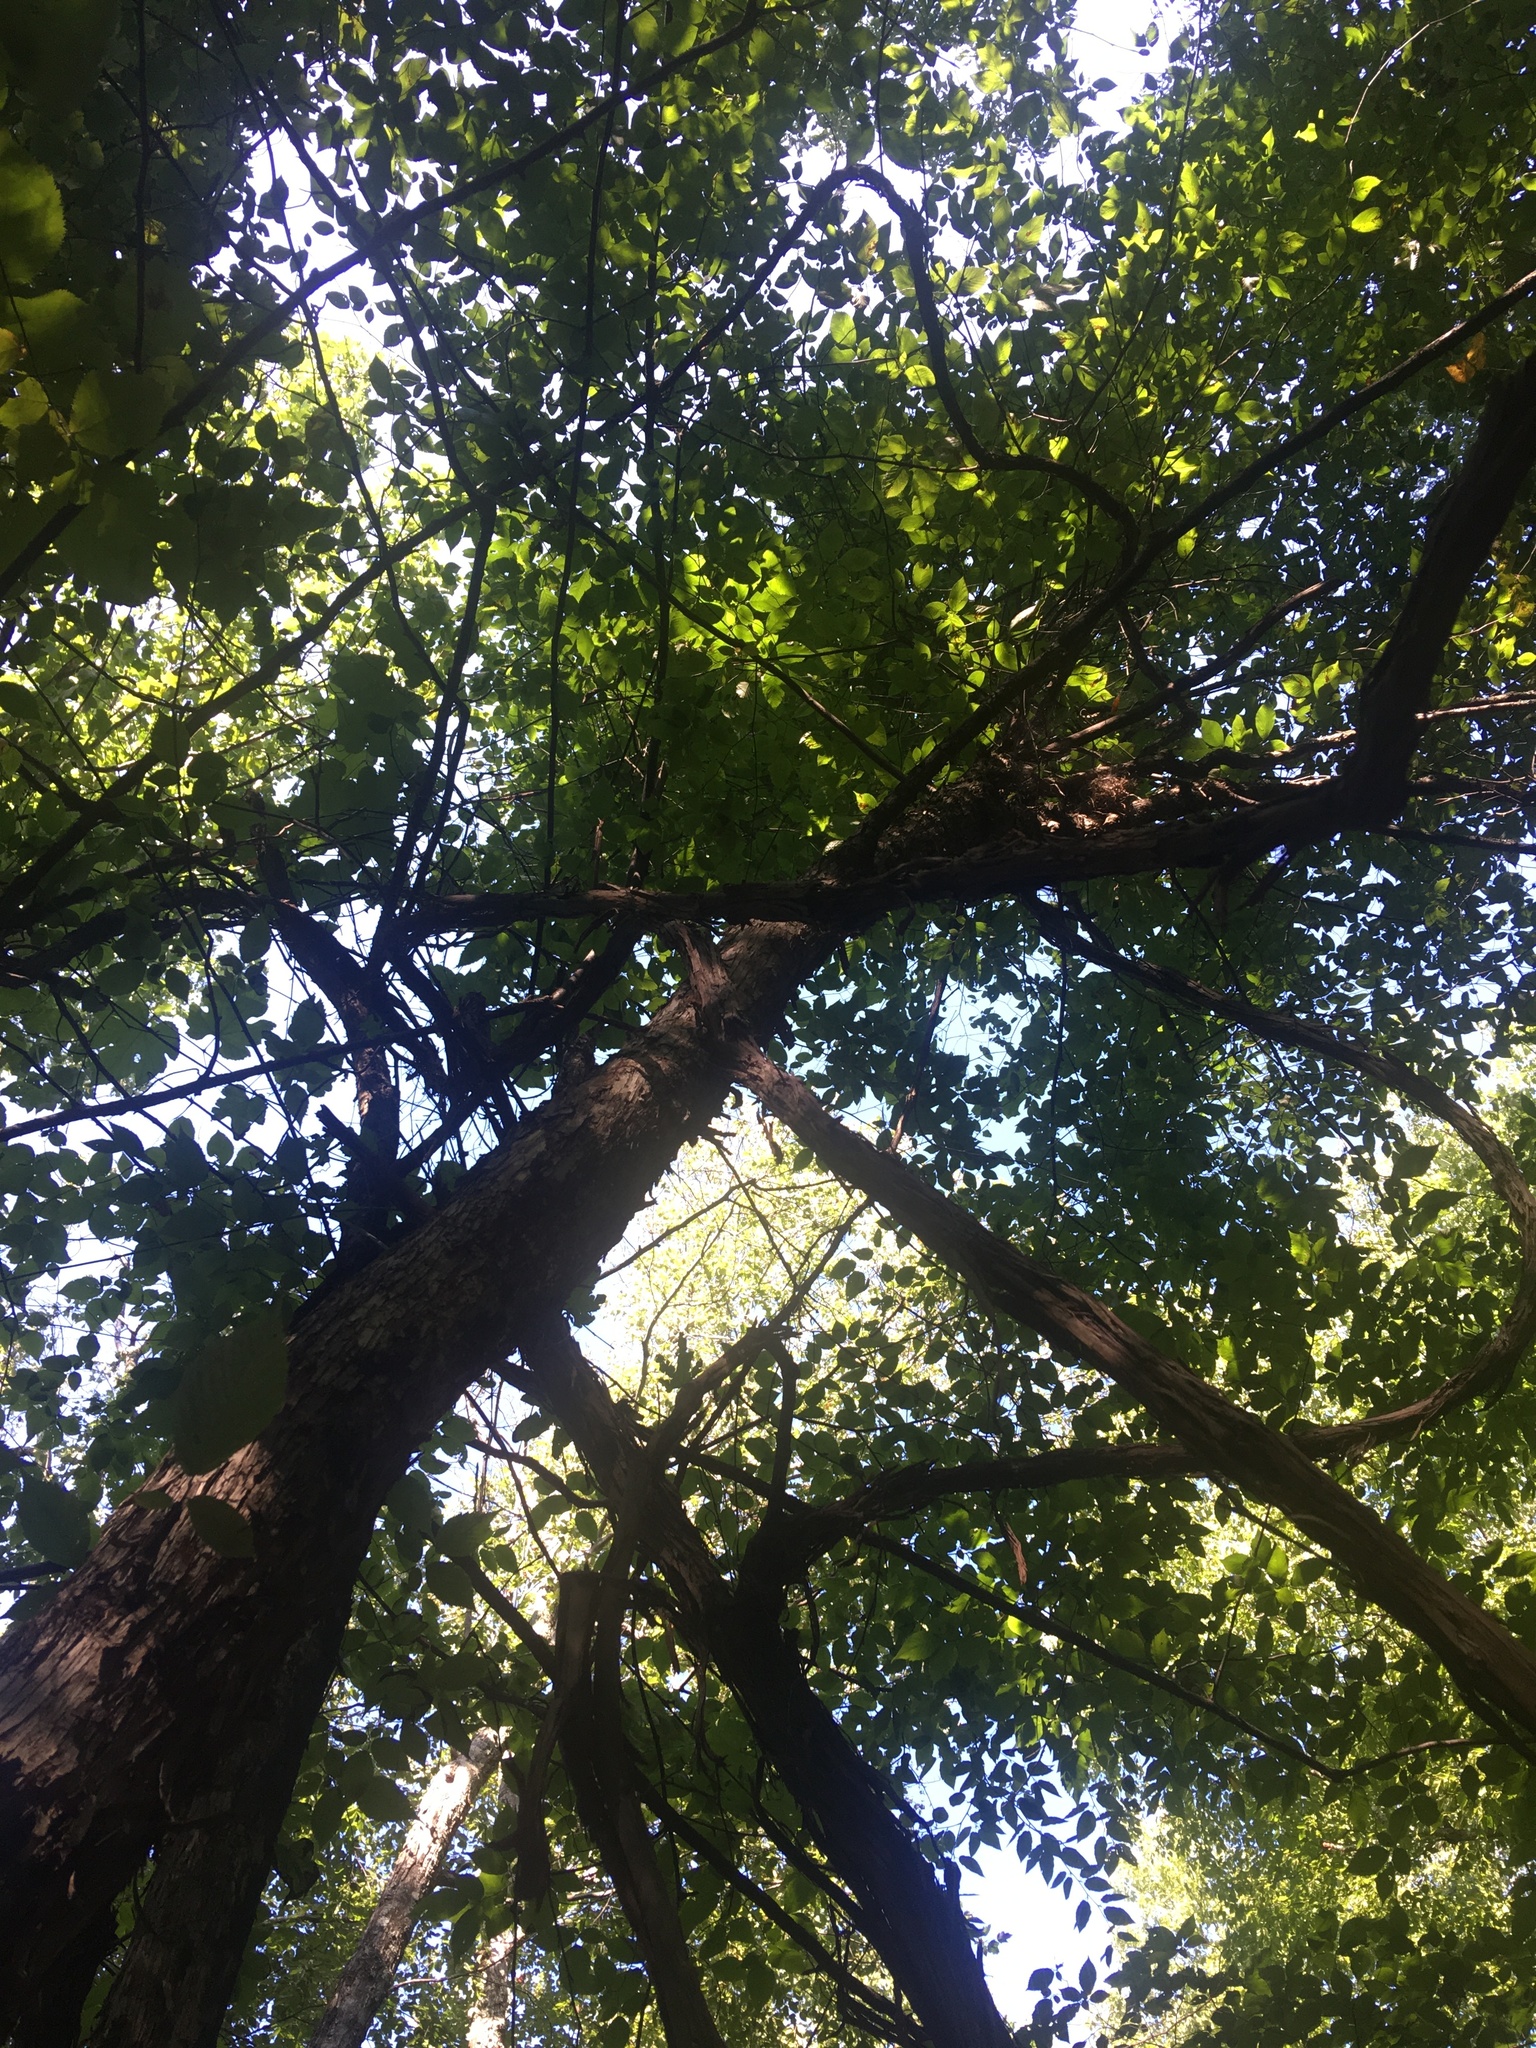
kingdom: Plantae
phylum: Tracheophyta
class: Magnoliopsida
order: Fagales
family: Betulaceae
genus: Ostrya
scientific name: Ostrya virginiana
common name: Ironwood
